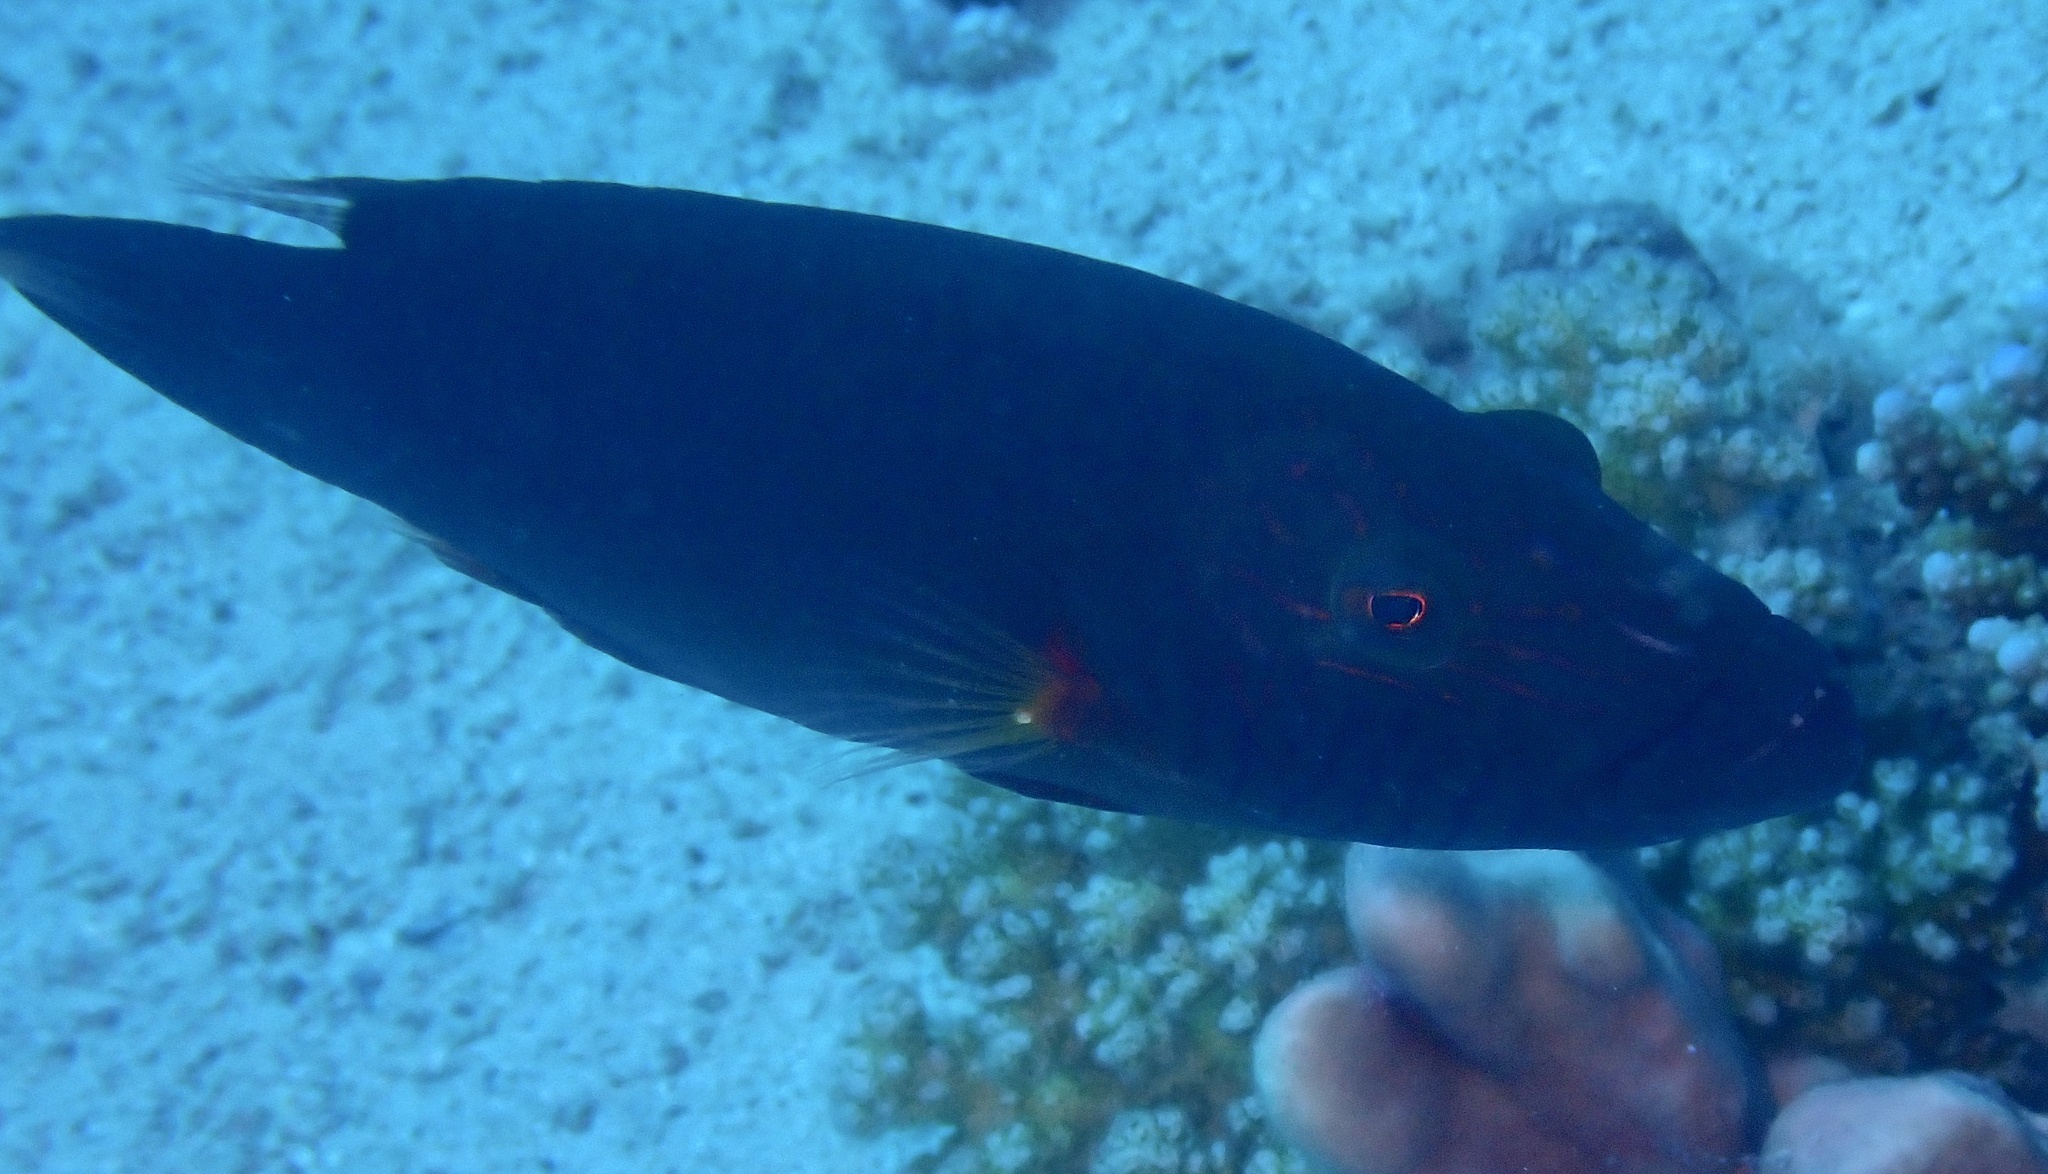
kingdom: Animalia
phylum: Chordata
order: Perciformes
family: Labridae
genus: Oxycheilinus
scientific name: Oxycheilinus digramma
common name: Bandcheek wrasse
